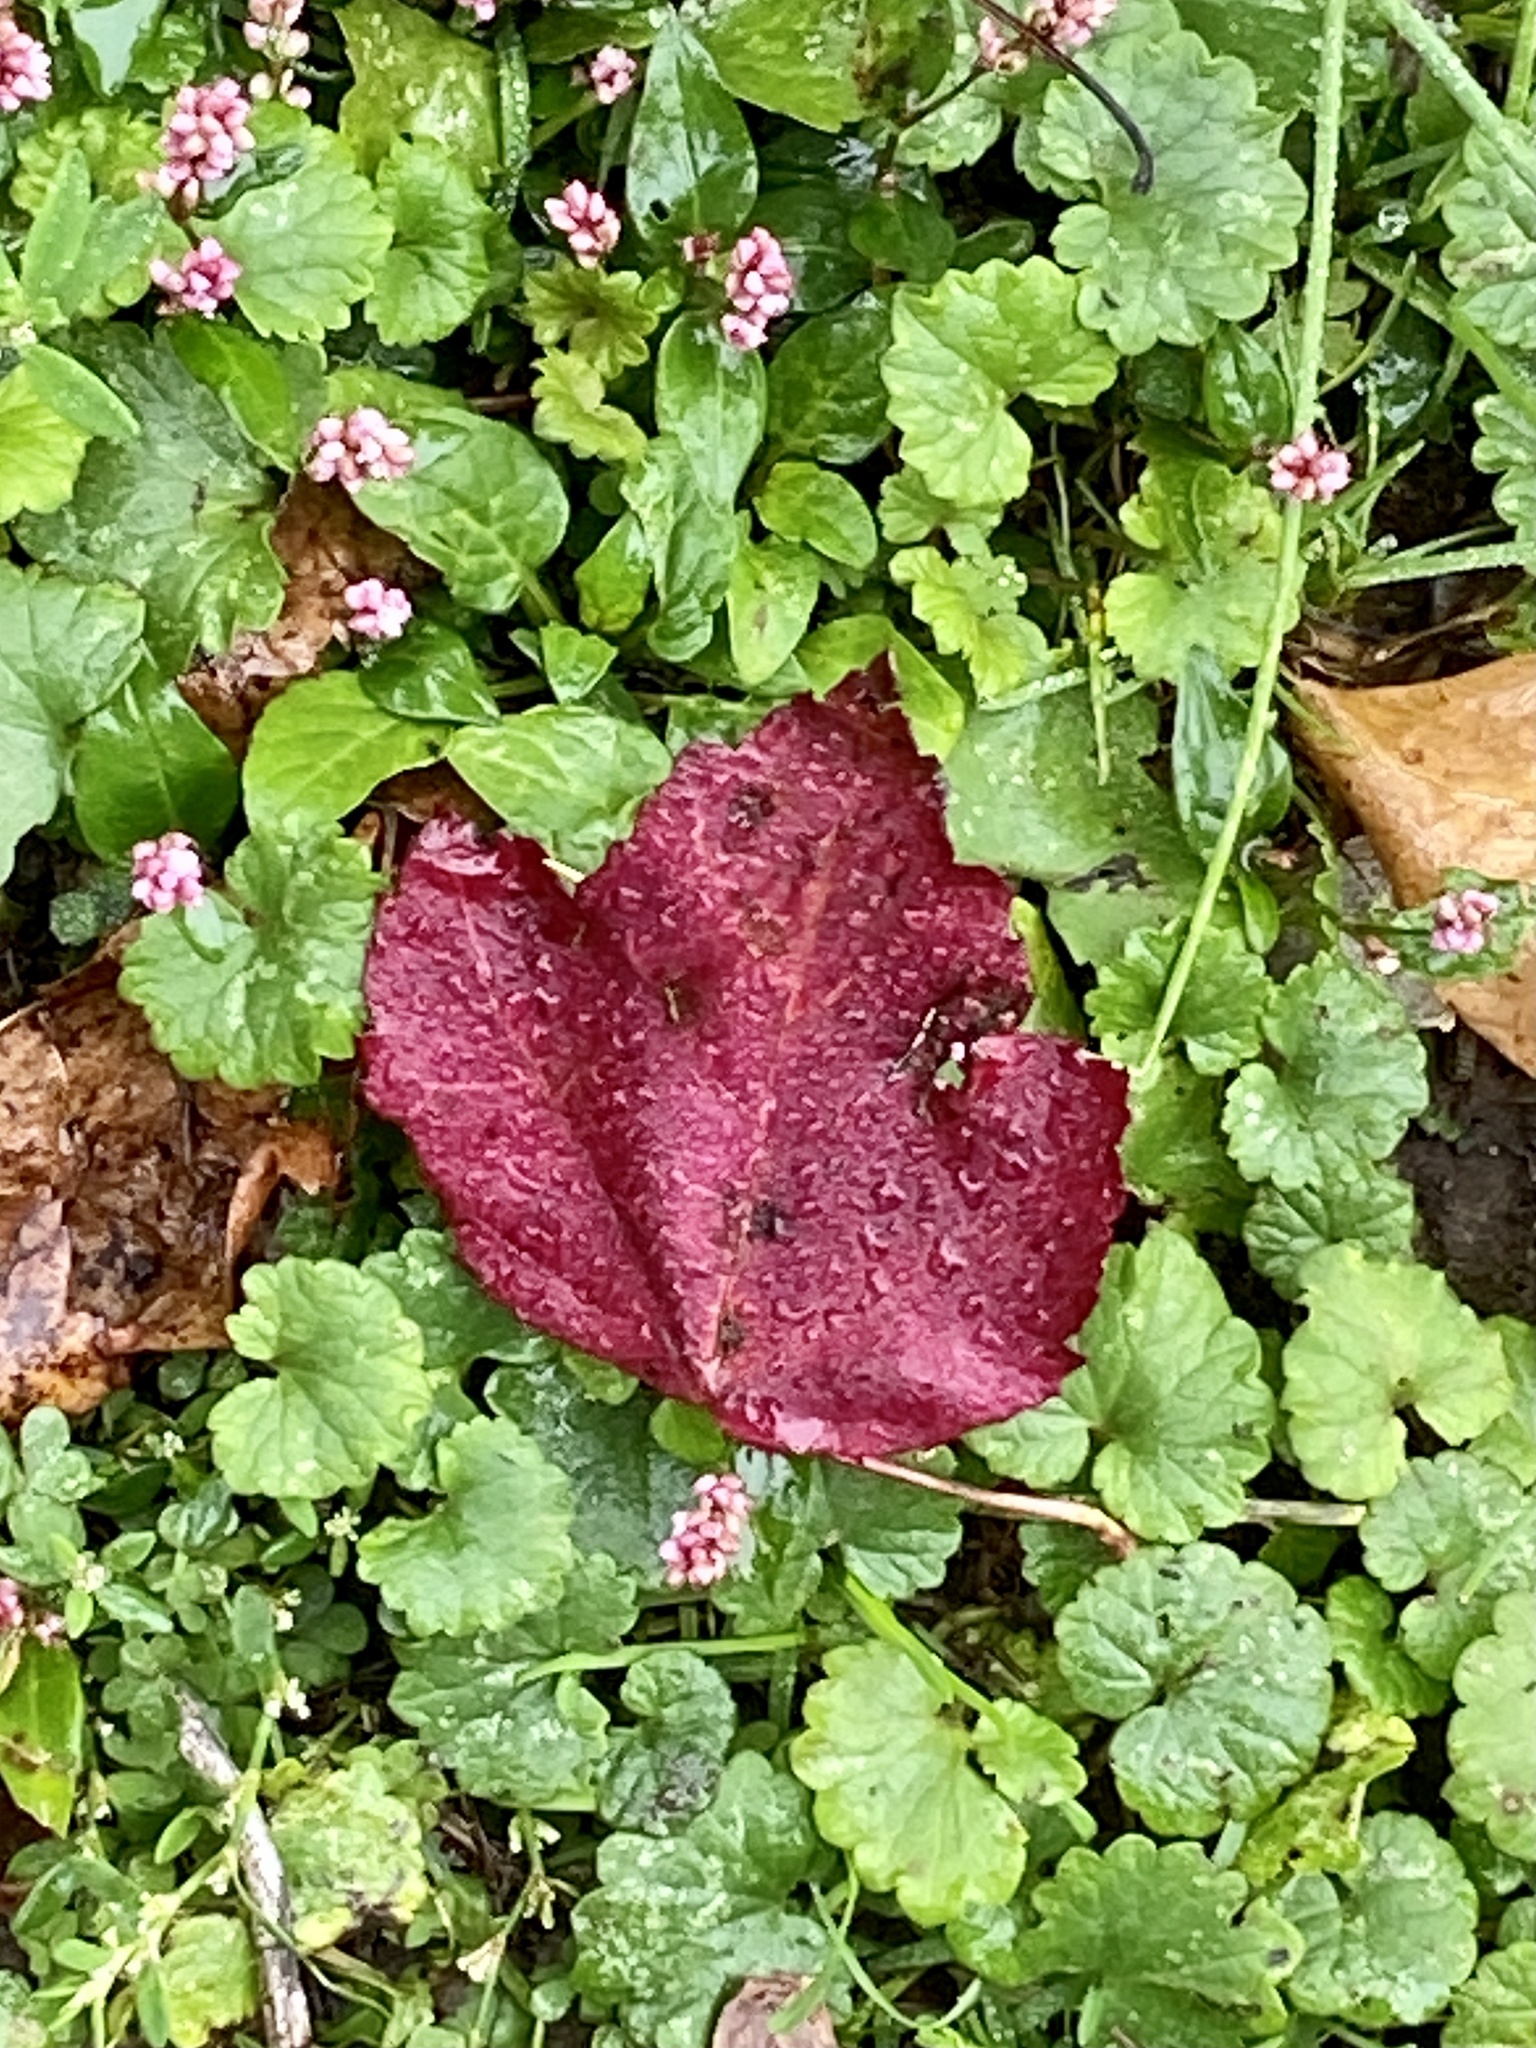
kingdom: Plantae
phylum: Tracheophyta
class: Magnoliopsida
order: Sapindales
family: Sapindaceae
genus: Acer
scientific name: Acer rubrum
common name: Red maple
